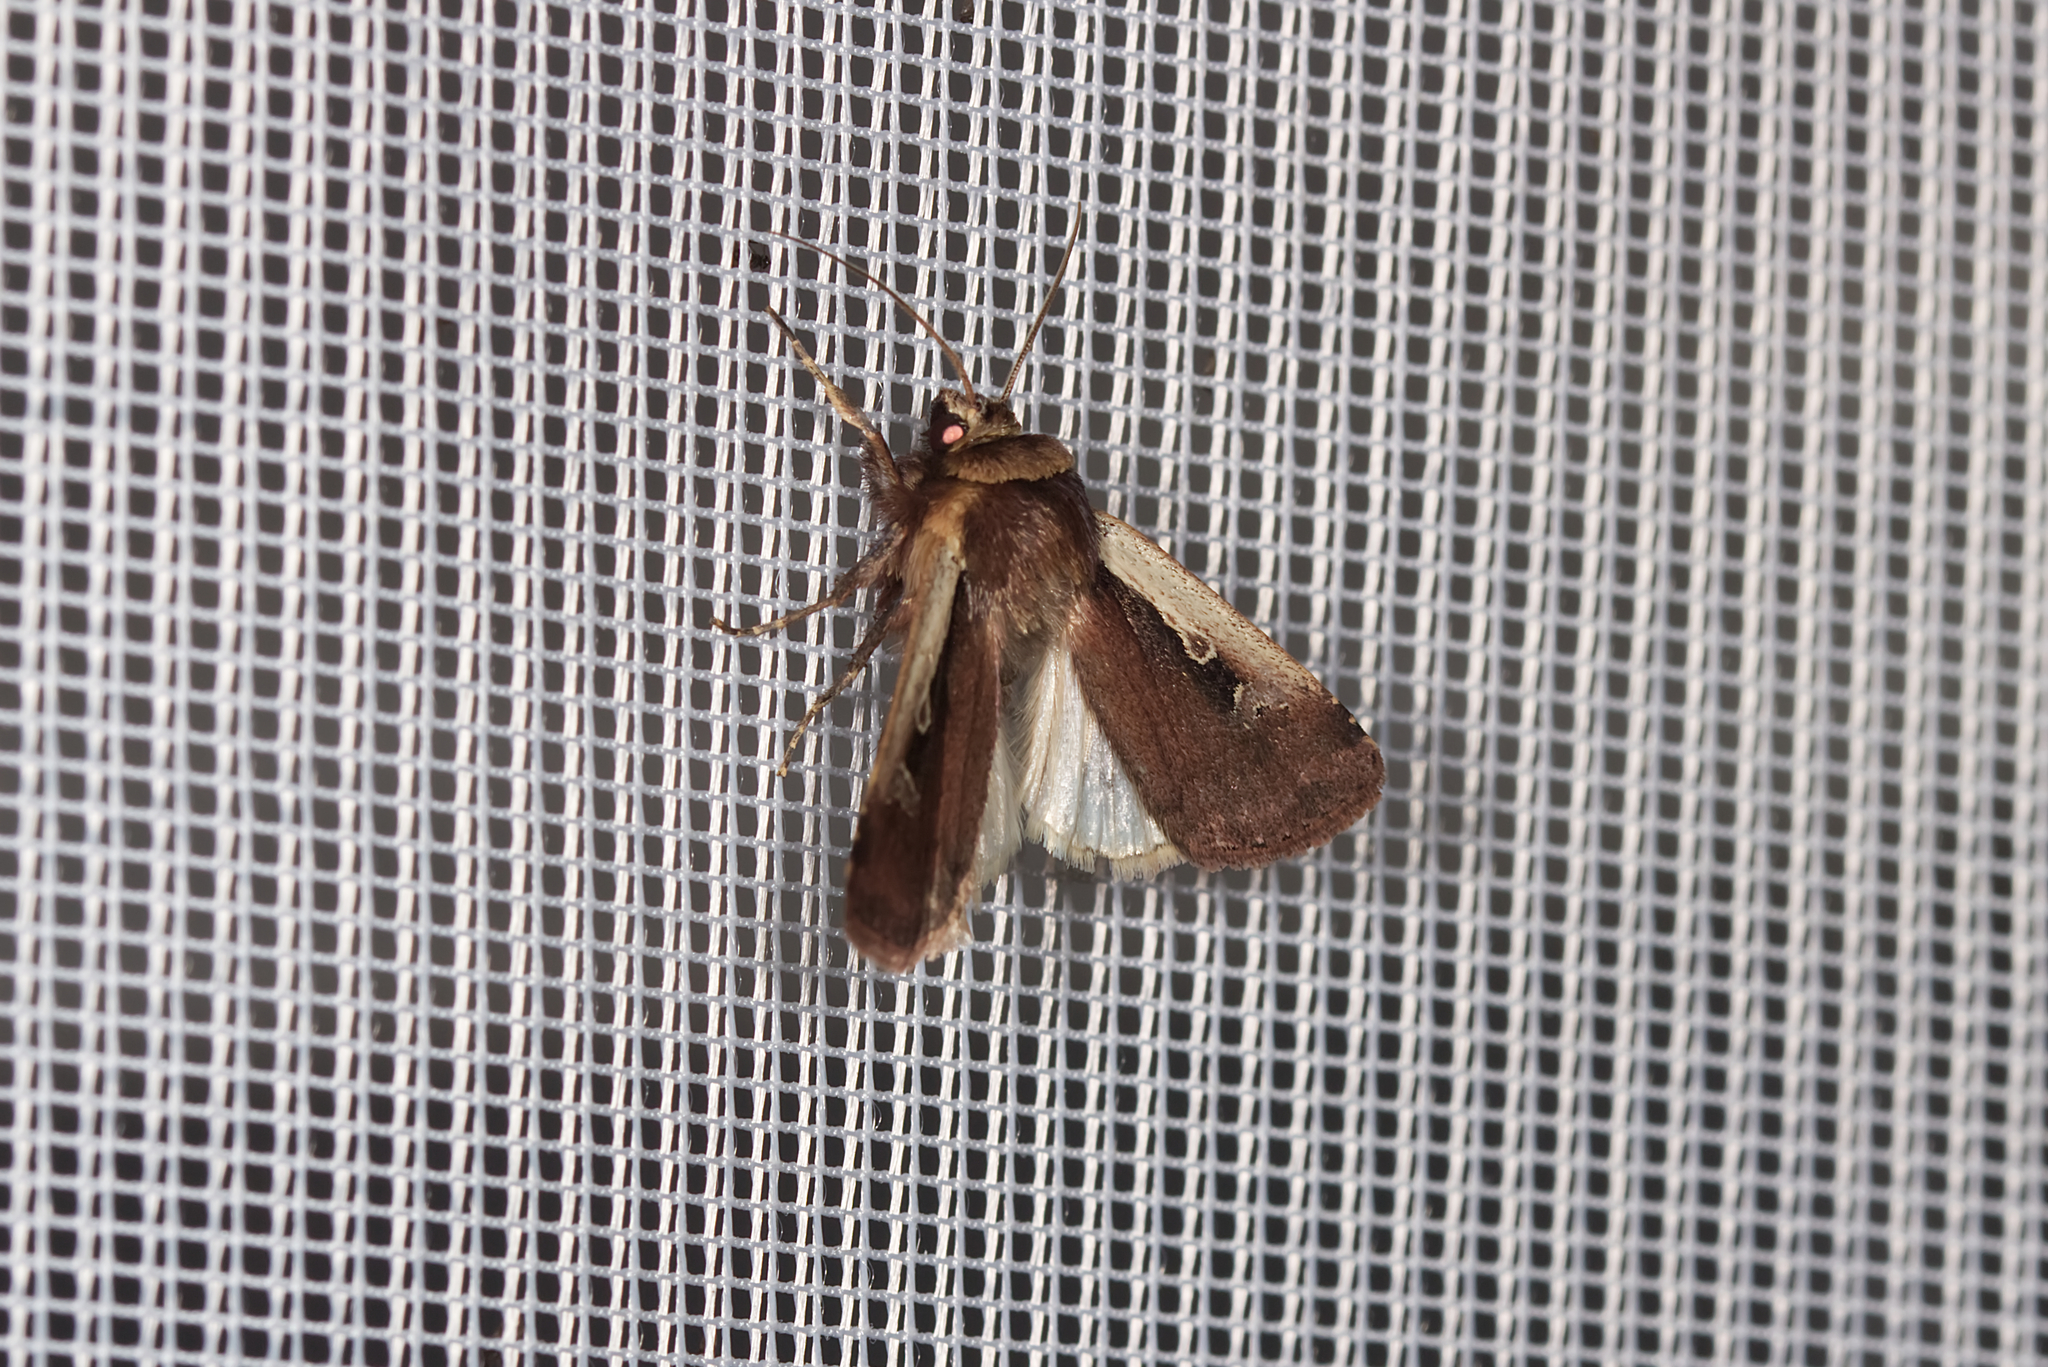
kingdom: Animalia
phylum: Arthropoda
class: Insecta
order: Lepidoptera
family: Noctuidae
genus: Ochropleura
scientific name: Ochropleura plecta
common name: Flame shoulder
